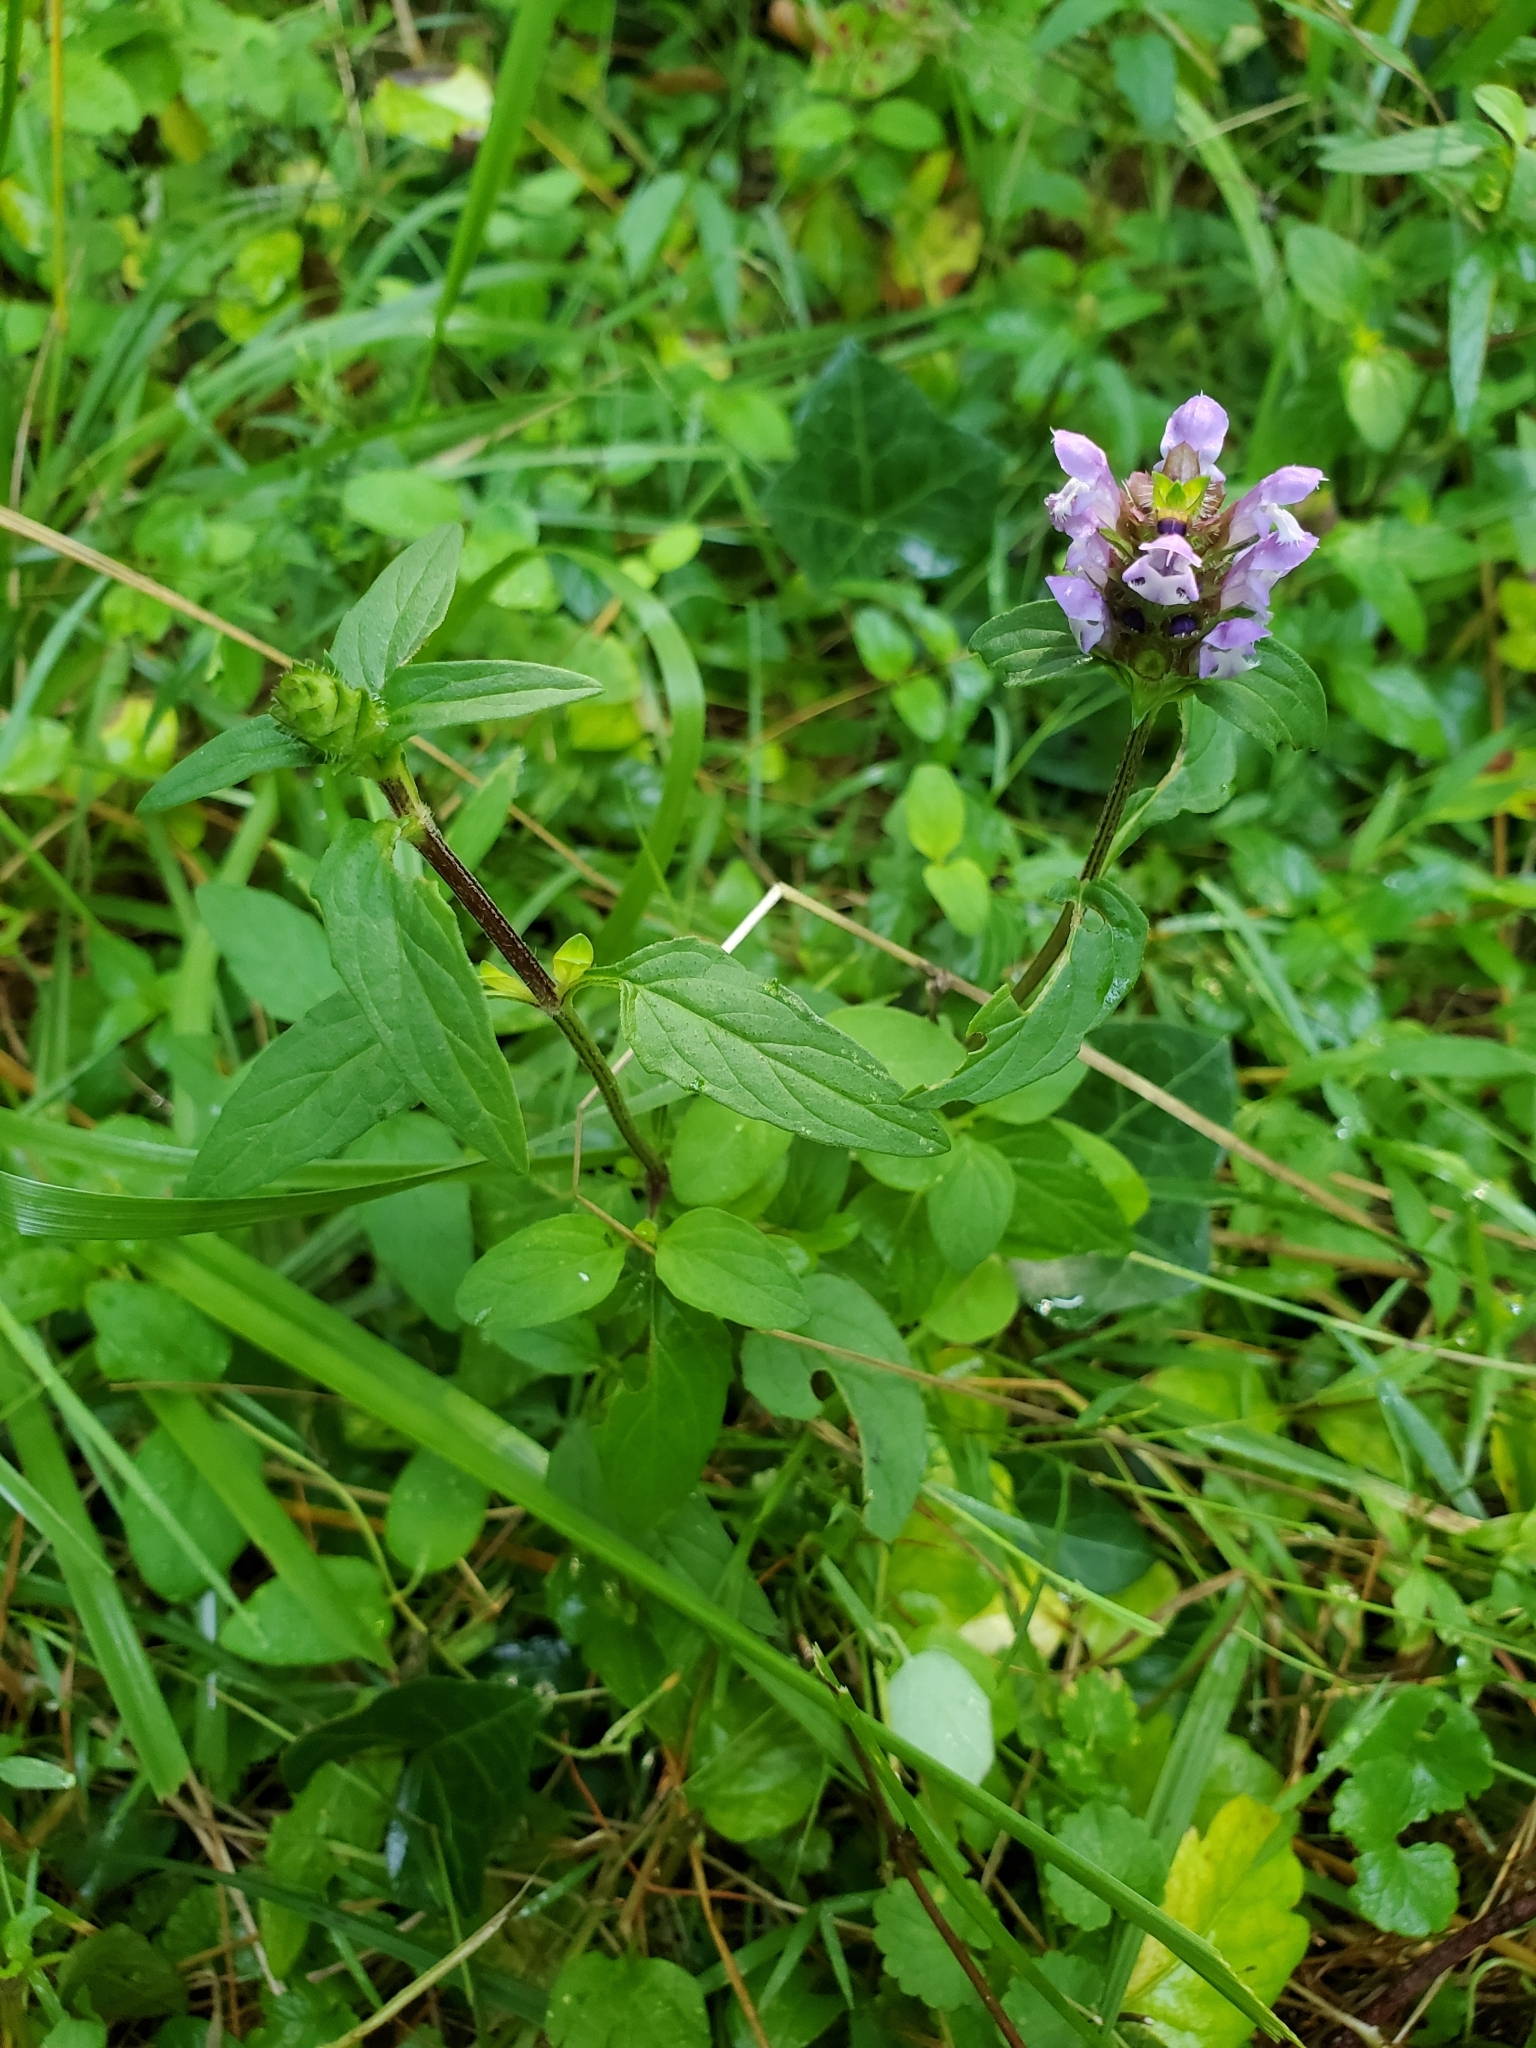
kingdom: Plantae
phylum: Tracheophyta
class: Magnoliopsida
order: Lamiales
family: Lamiaceae
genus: Prunella
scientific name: Prunella vulgaris
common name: Heal-all
